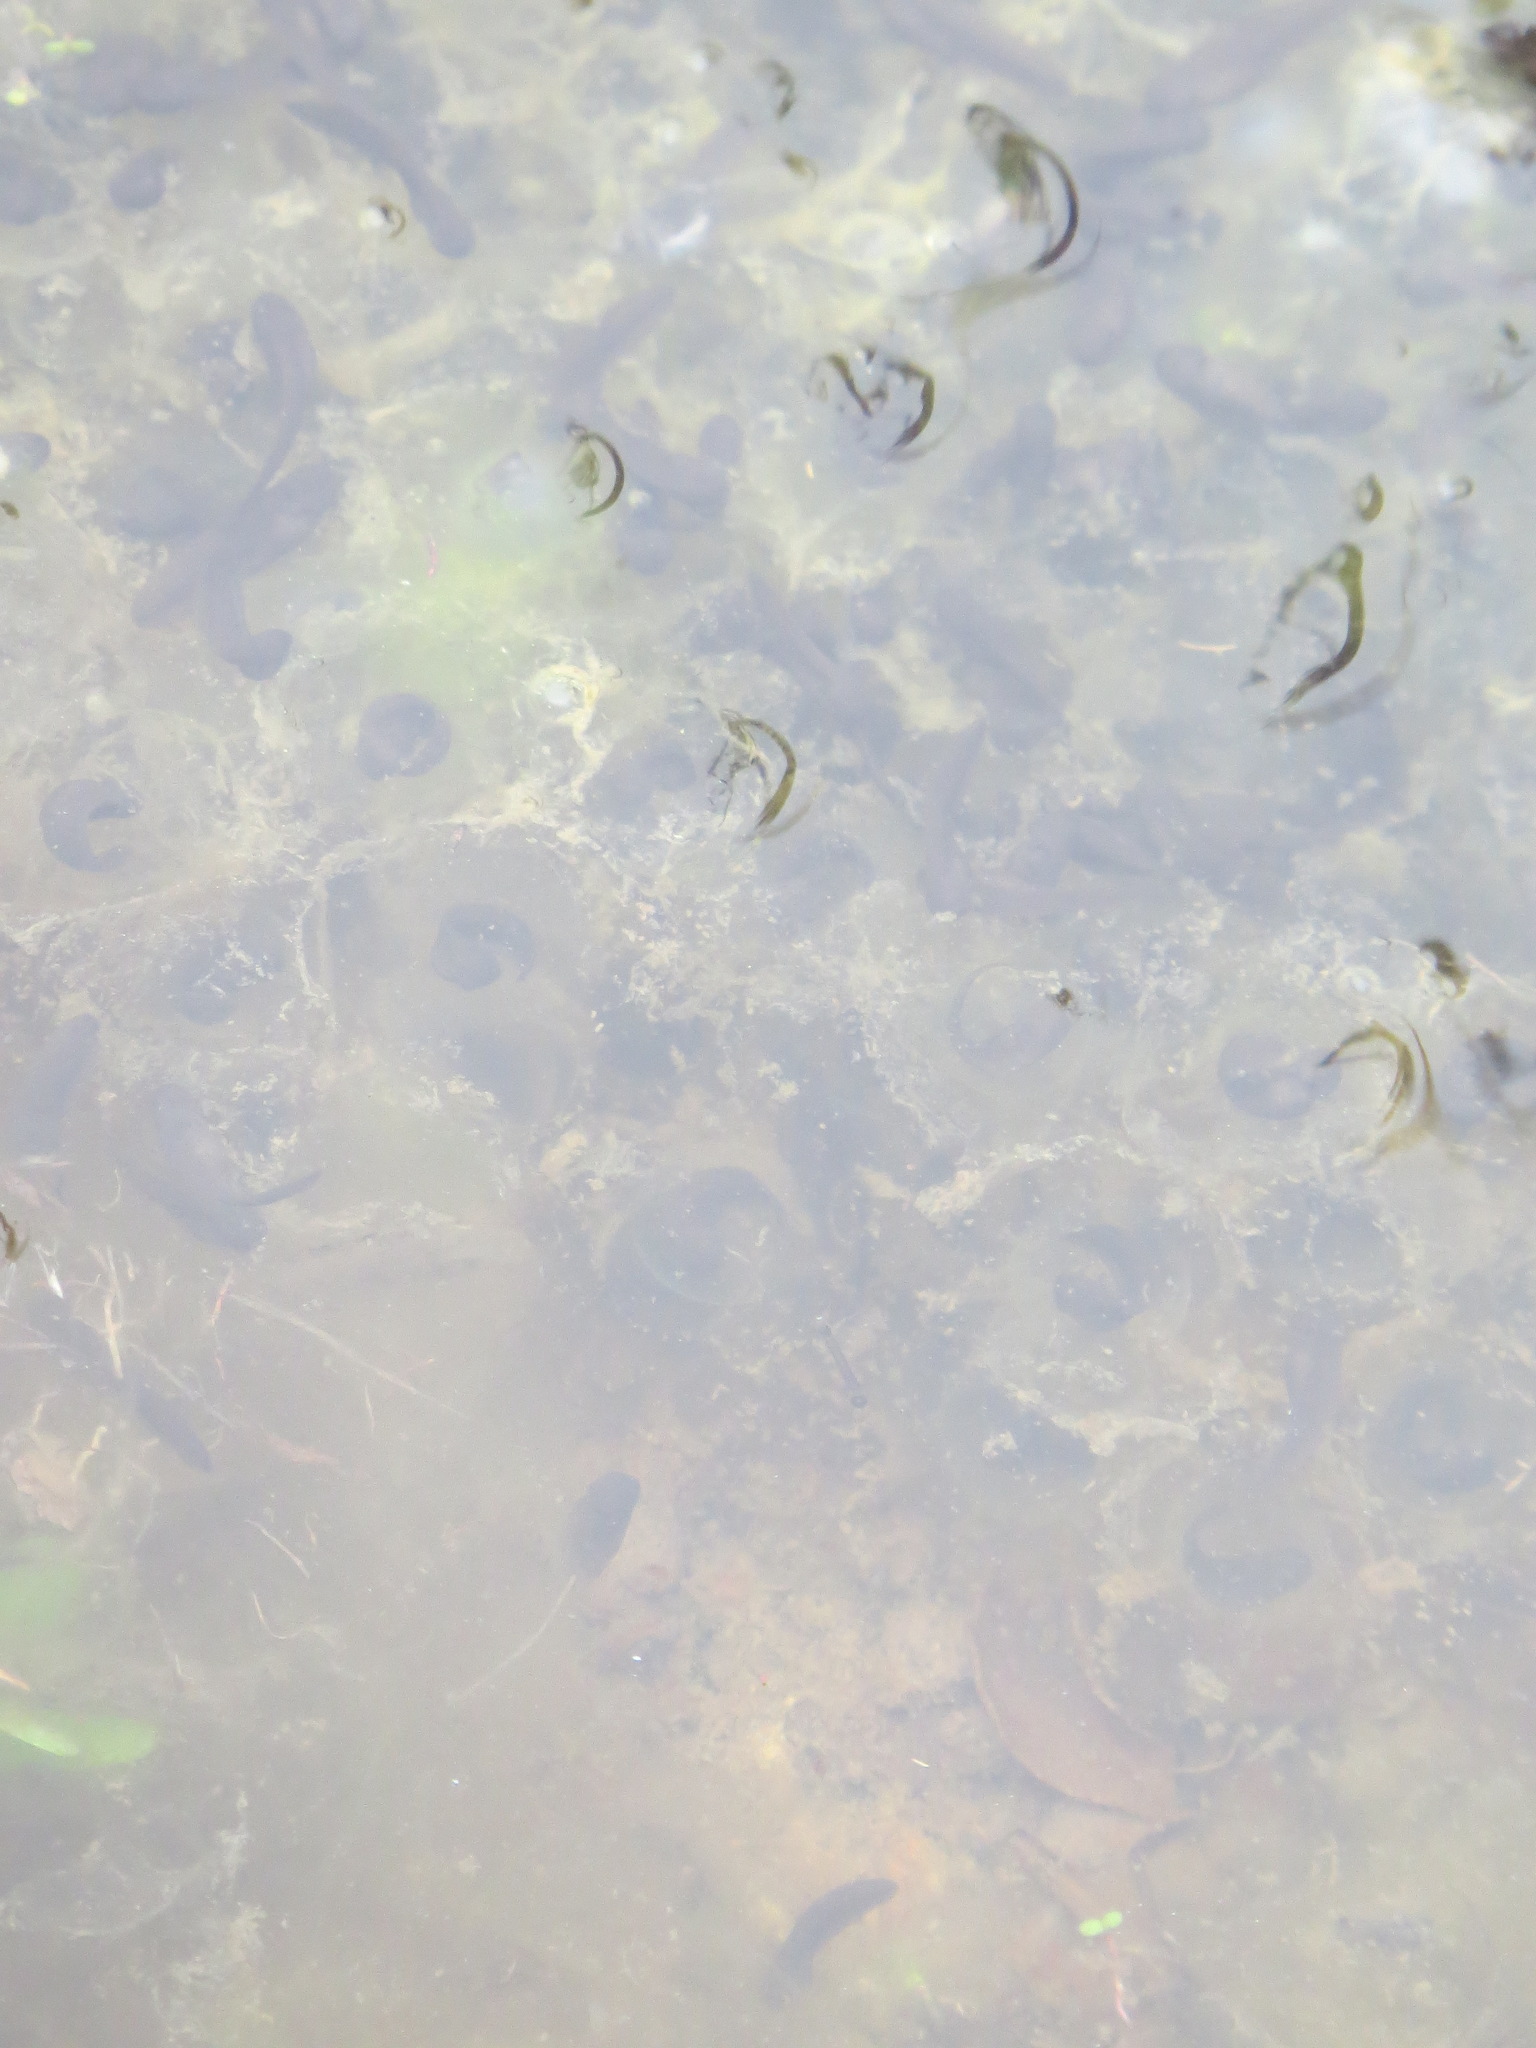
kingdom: Animalia
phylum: Chordata
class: Amphibia
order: Anura
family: Ranidae
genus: Rana
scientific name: Rana draytonii
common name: California red-legged frog
